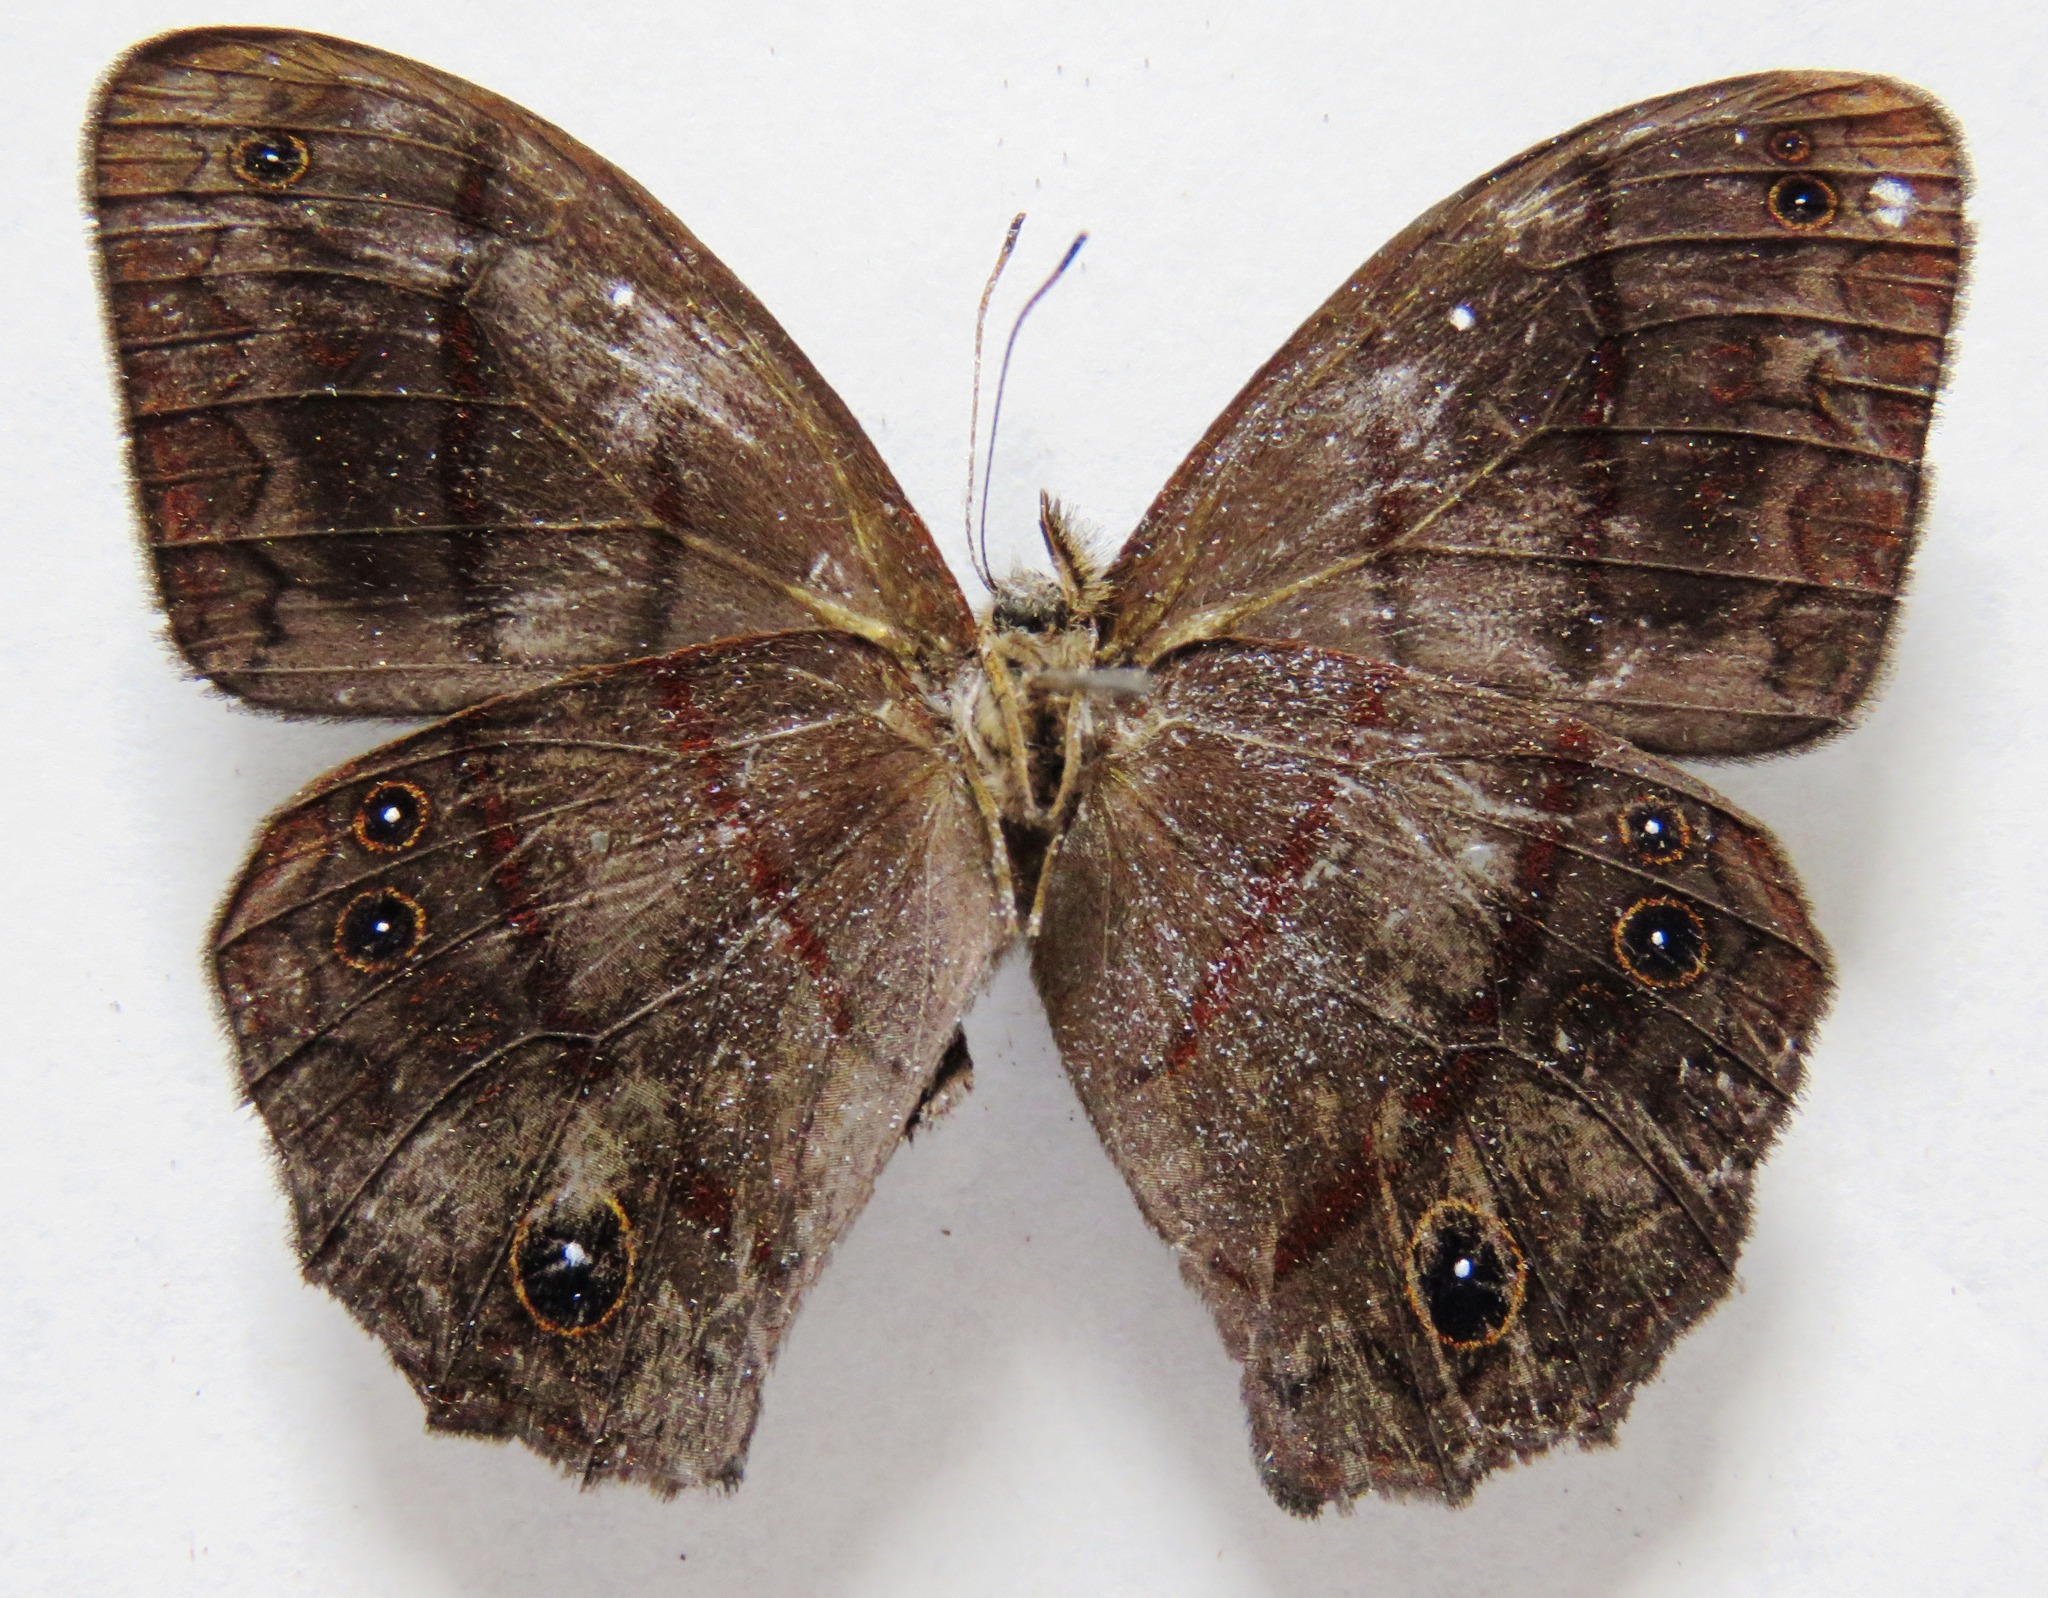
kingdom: Animalia
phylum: Arthropoda
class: Insecta
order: Lepidoptera
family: Nymphalidae
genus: Satyrotaygetis
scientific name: Satyrotaygetis satyrina
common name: Wide-bordered satyr
